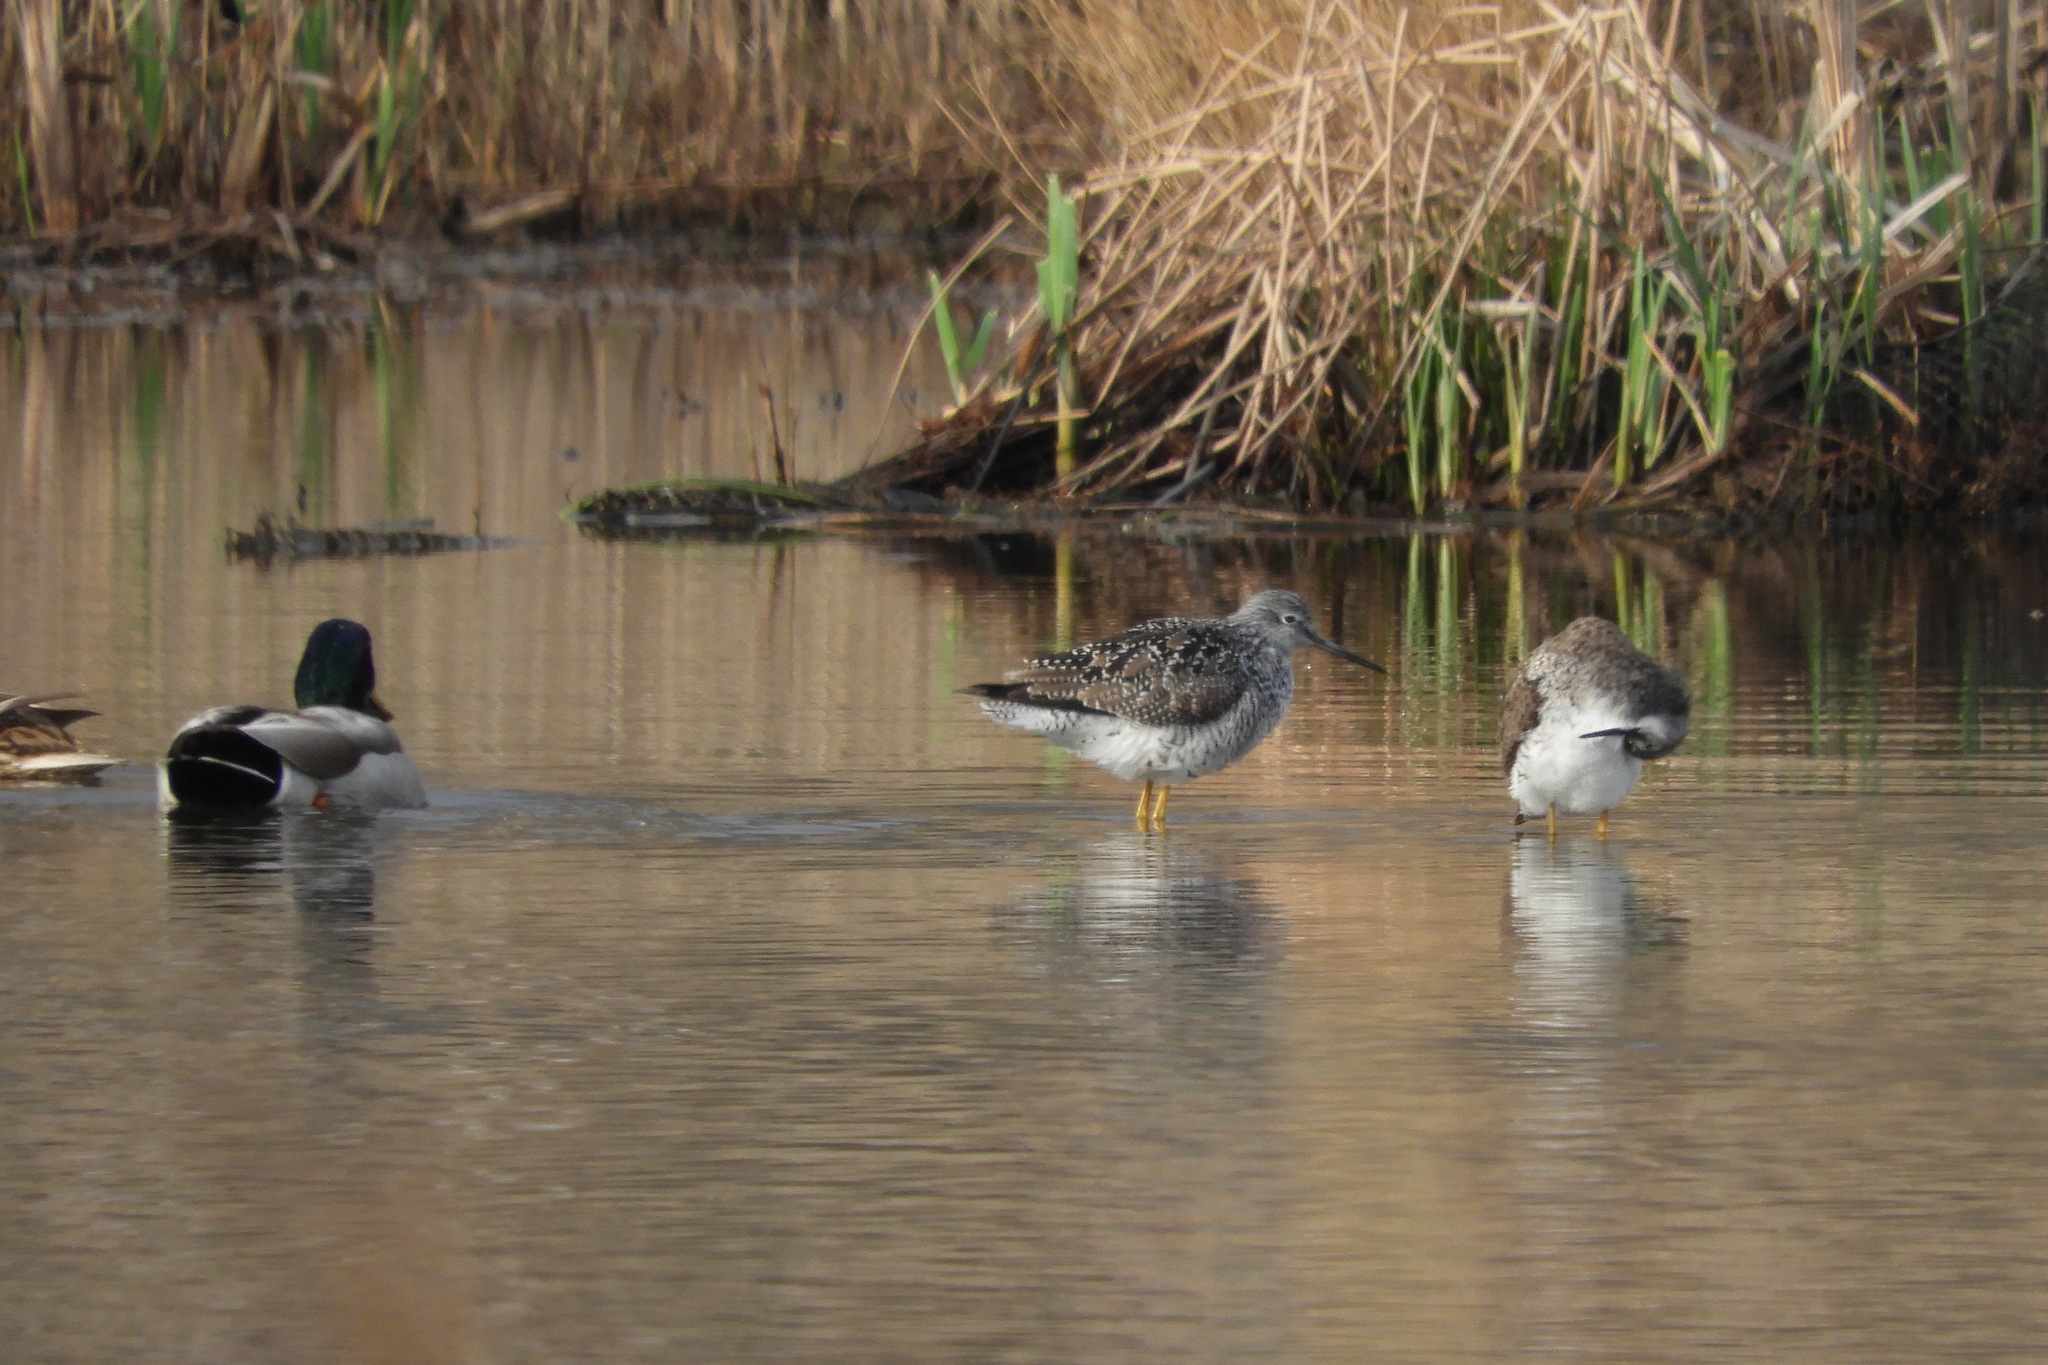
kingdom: Animalia
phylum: Chordata
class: Aves
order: Anseriformes
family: Anatidae
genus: Anas
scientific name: Anas platyrhynchos
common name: Mallard
